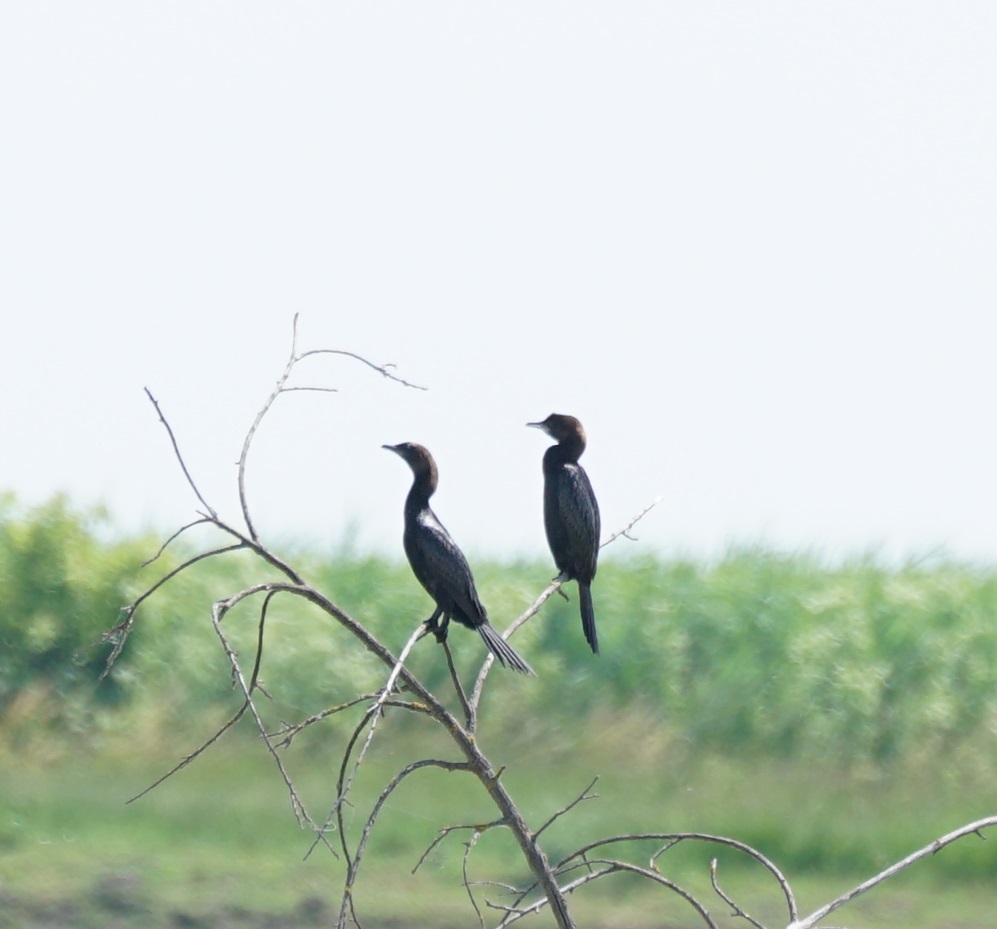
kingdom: Animalia
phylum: Chordata
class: Aves
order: Suliformes
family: Phalacrocoracidae
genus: Microcarbo
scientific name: Microcarbo pygmaeus
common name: Pygmy cormorant
